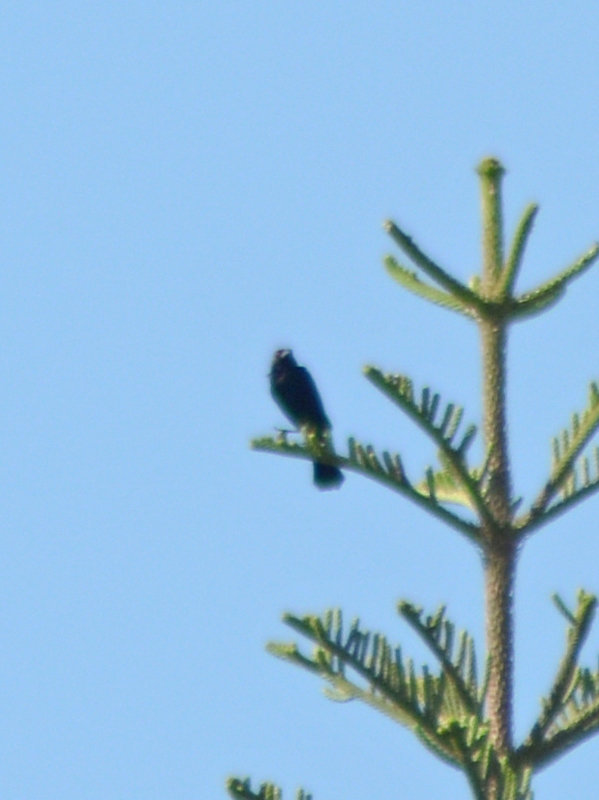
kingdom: Animalia
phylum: Chordata
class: Aves
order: Passeriformes
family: Icteridae
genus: Molothrus
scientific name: Molothrus aeneus
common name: Bronzed cowbird
